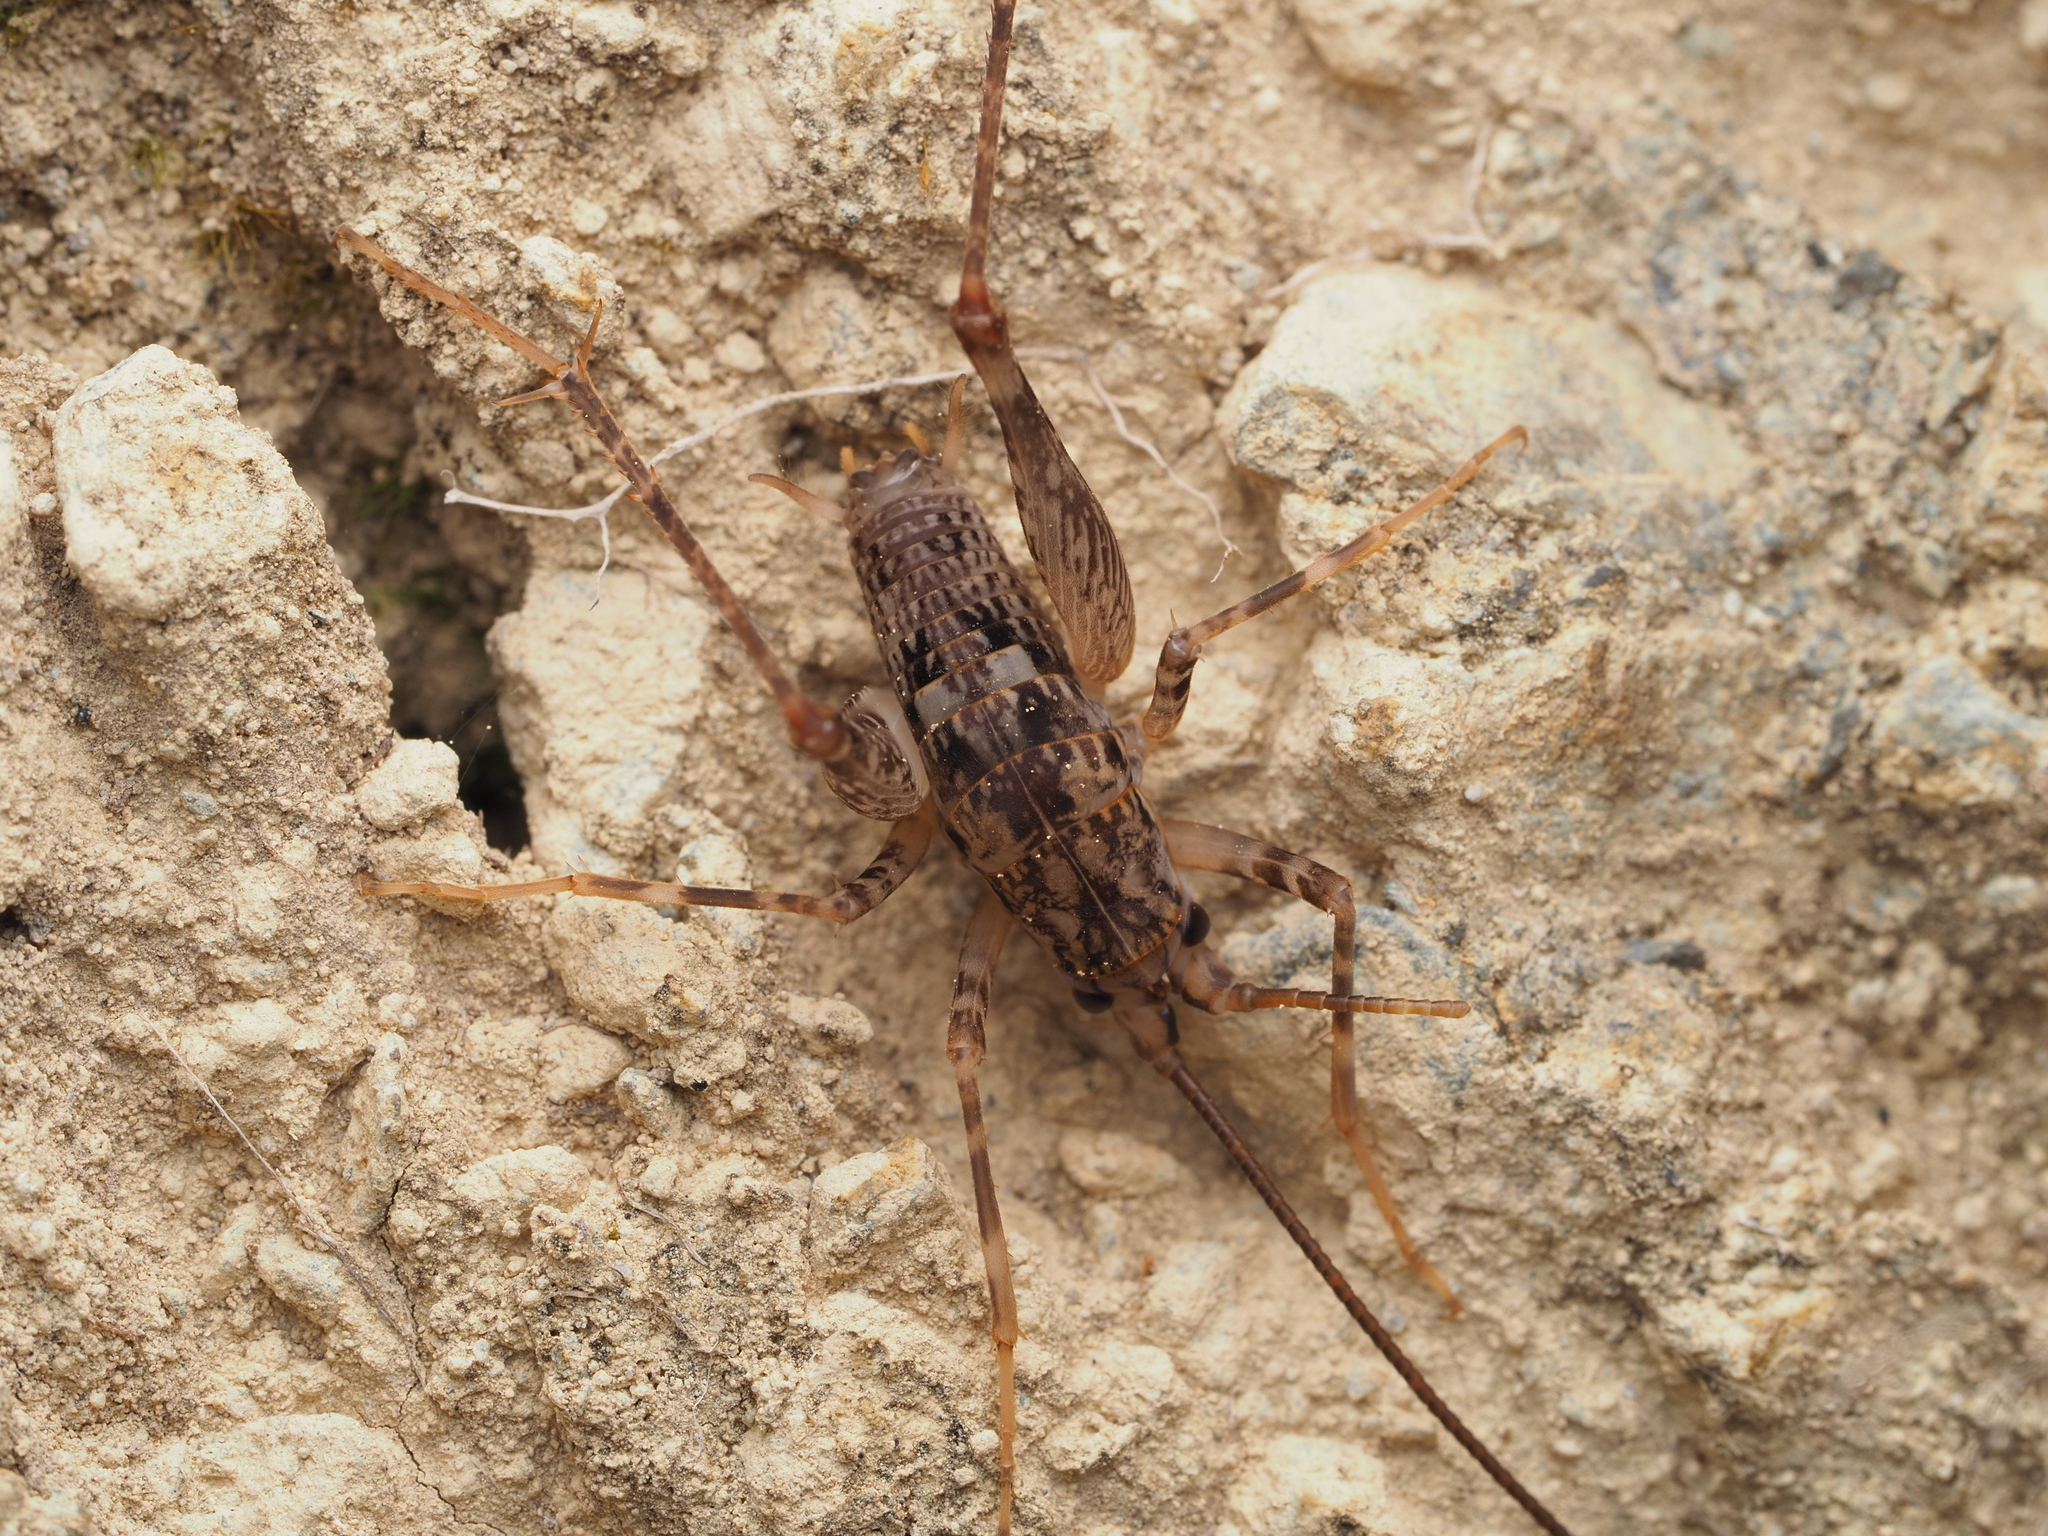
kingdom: Animalia
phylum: Arthropoda
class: Insecta
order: Orthoptera
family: Rhaphidophoridae
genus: Pleioplectron
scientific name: Pleioplectron simplex
